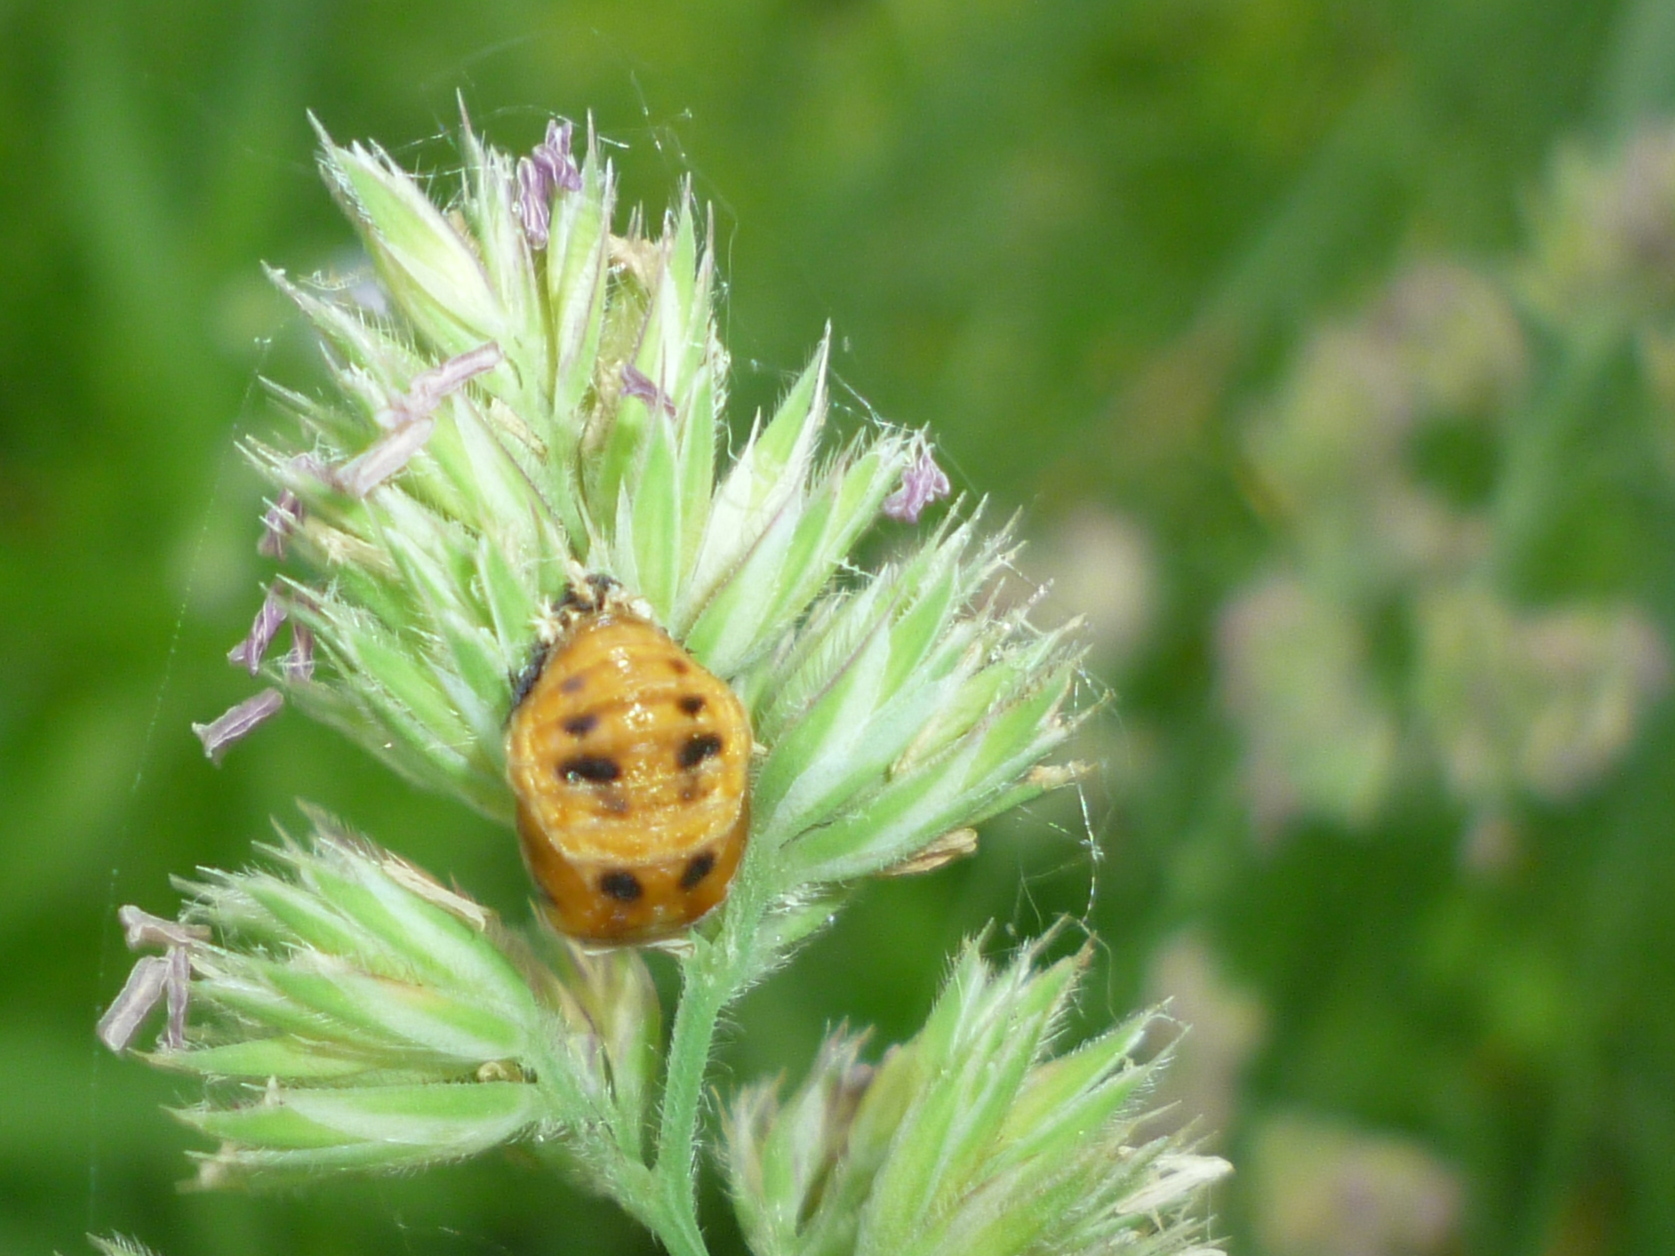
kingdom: Animalia
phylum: Arthropoda
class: Insecta
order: Coleoptera
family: Coccinellidae
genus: Harmonia
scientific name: Harmonia axyridis
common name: Harlequin ladybird
